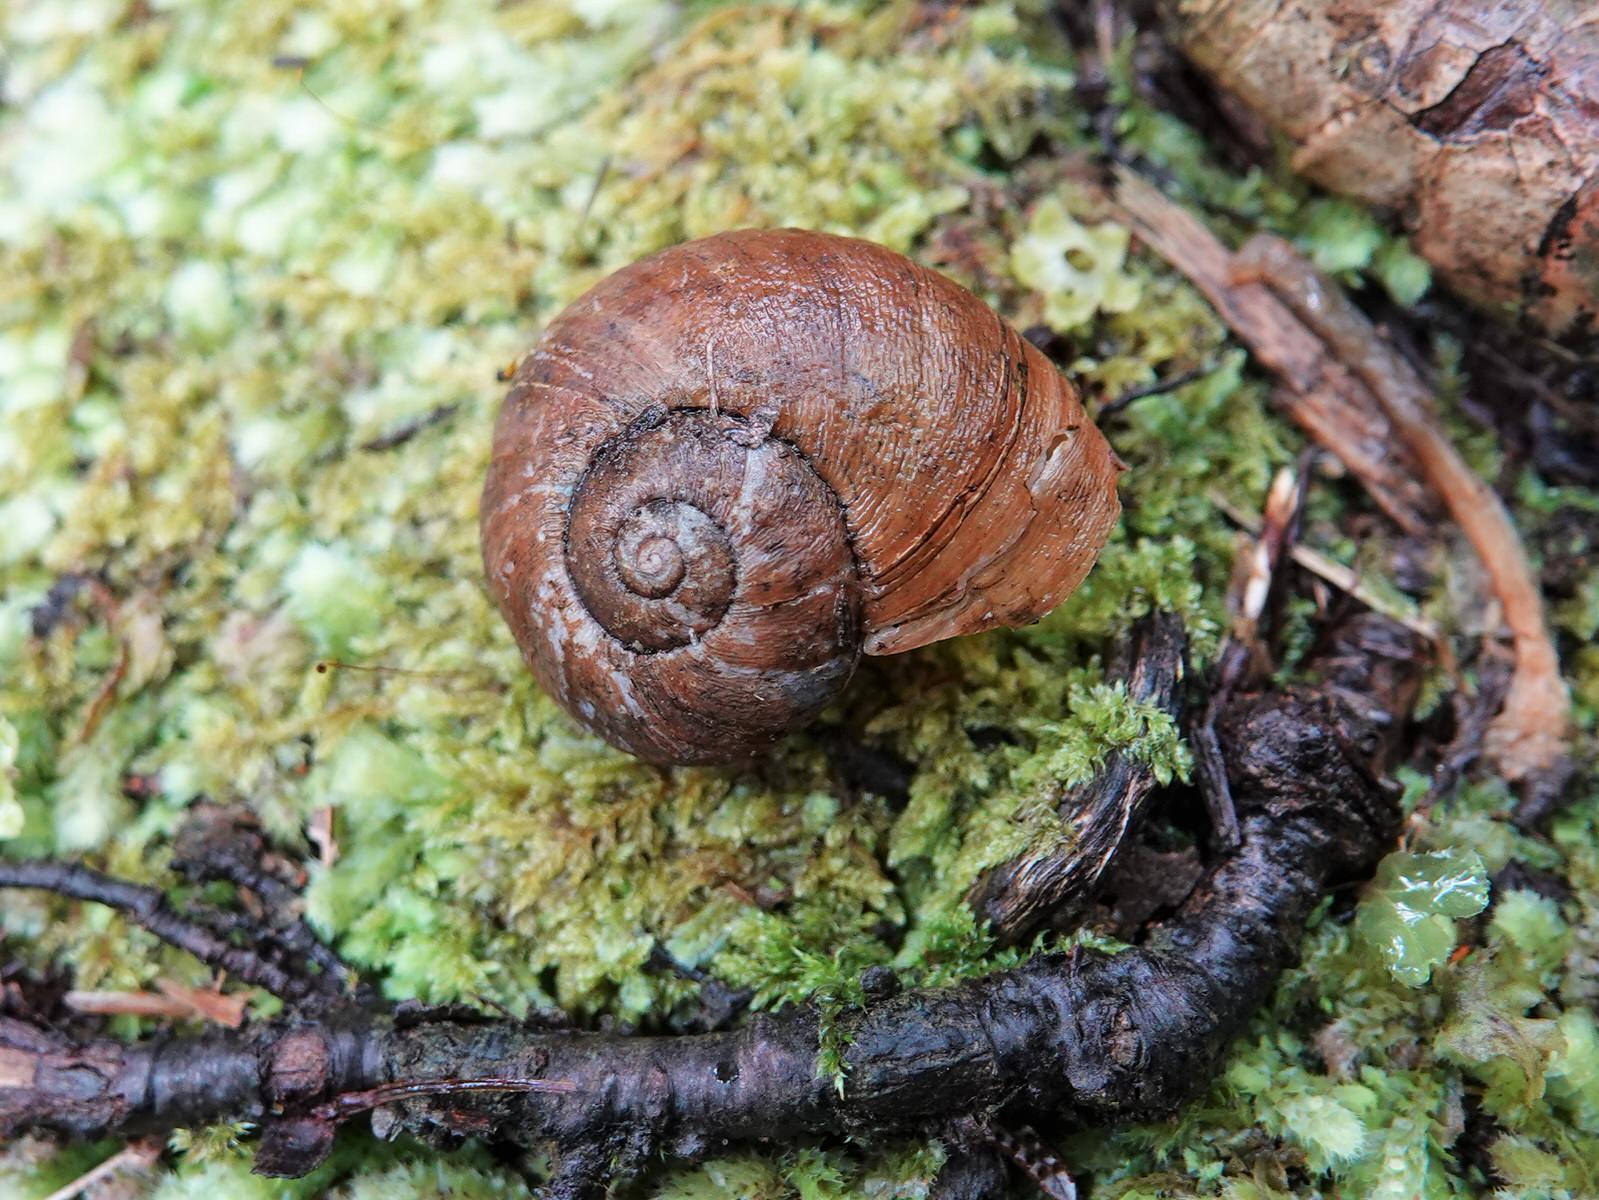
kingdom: Animalia
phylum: Mollusca
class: Gastropoda
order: Stylommatophora
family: Rhytididae
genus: Rhytida
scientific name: Rhytida greenwoodi
